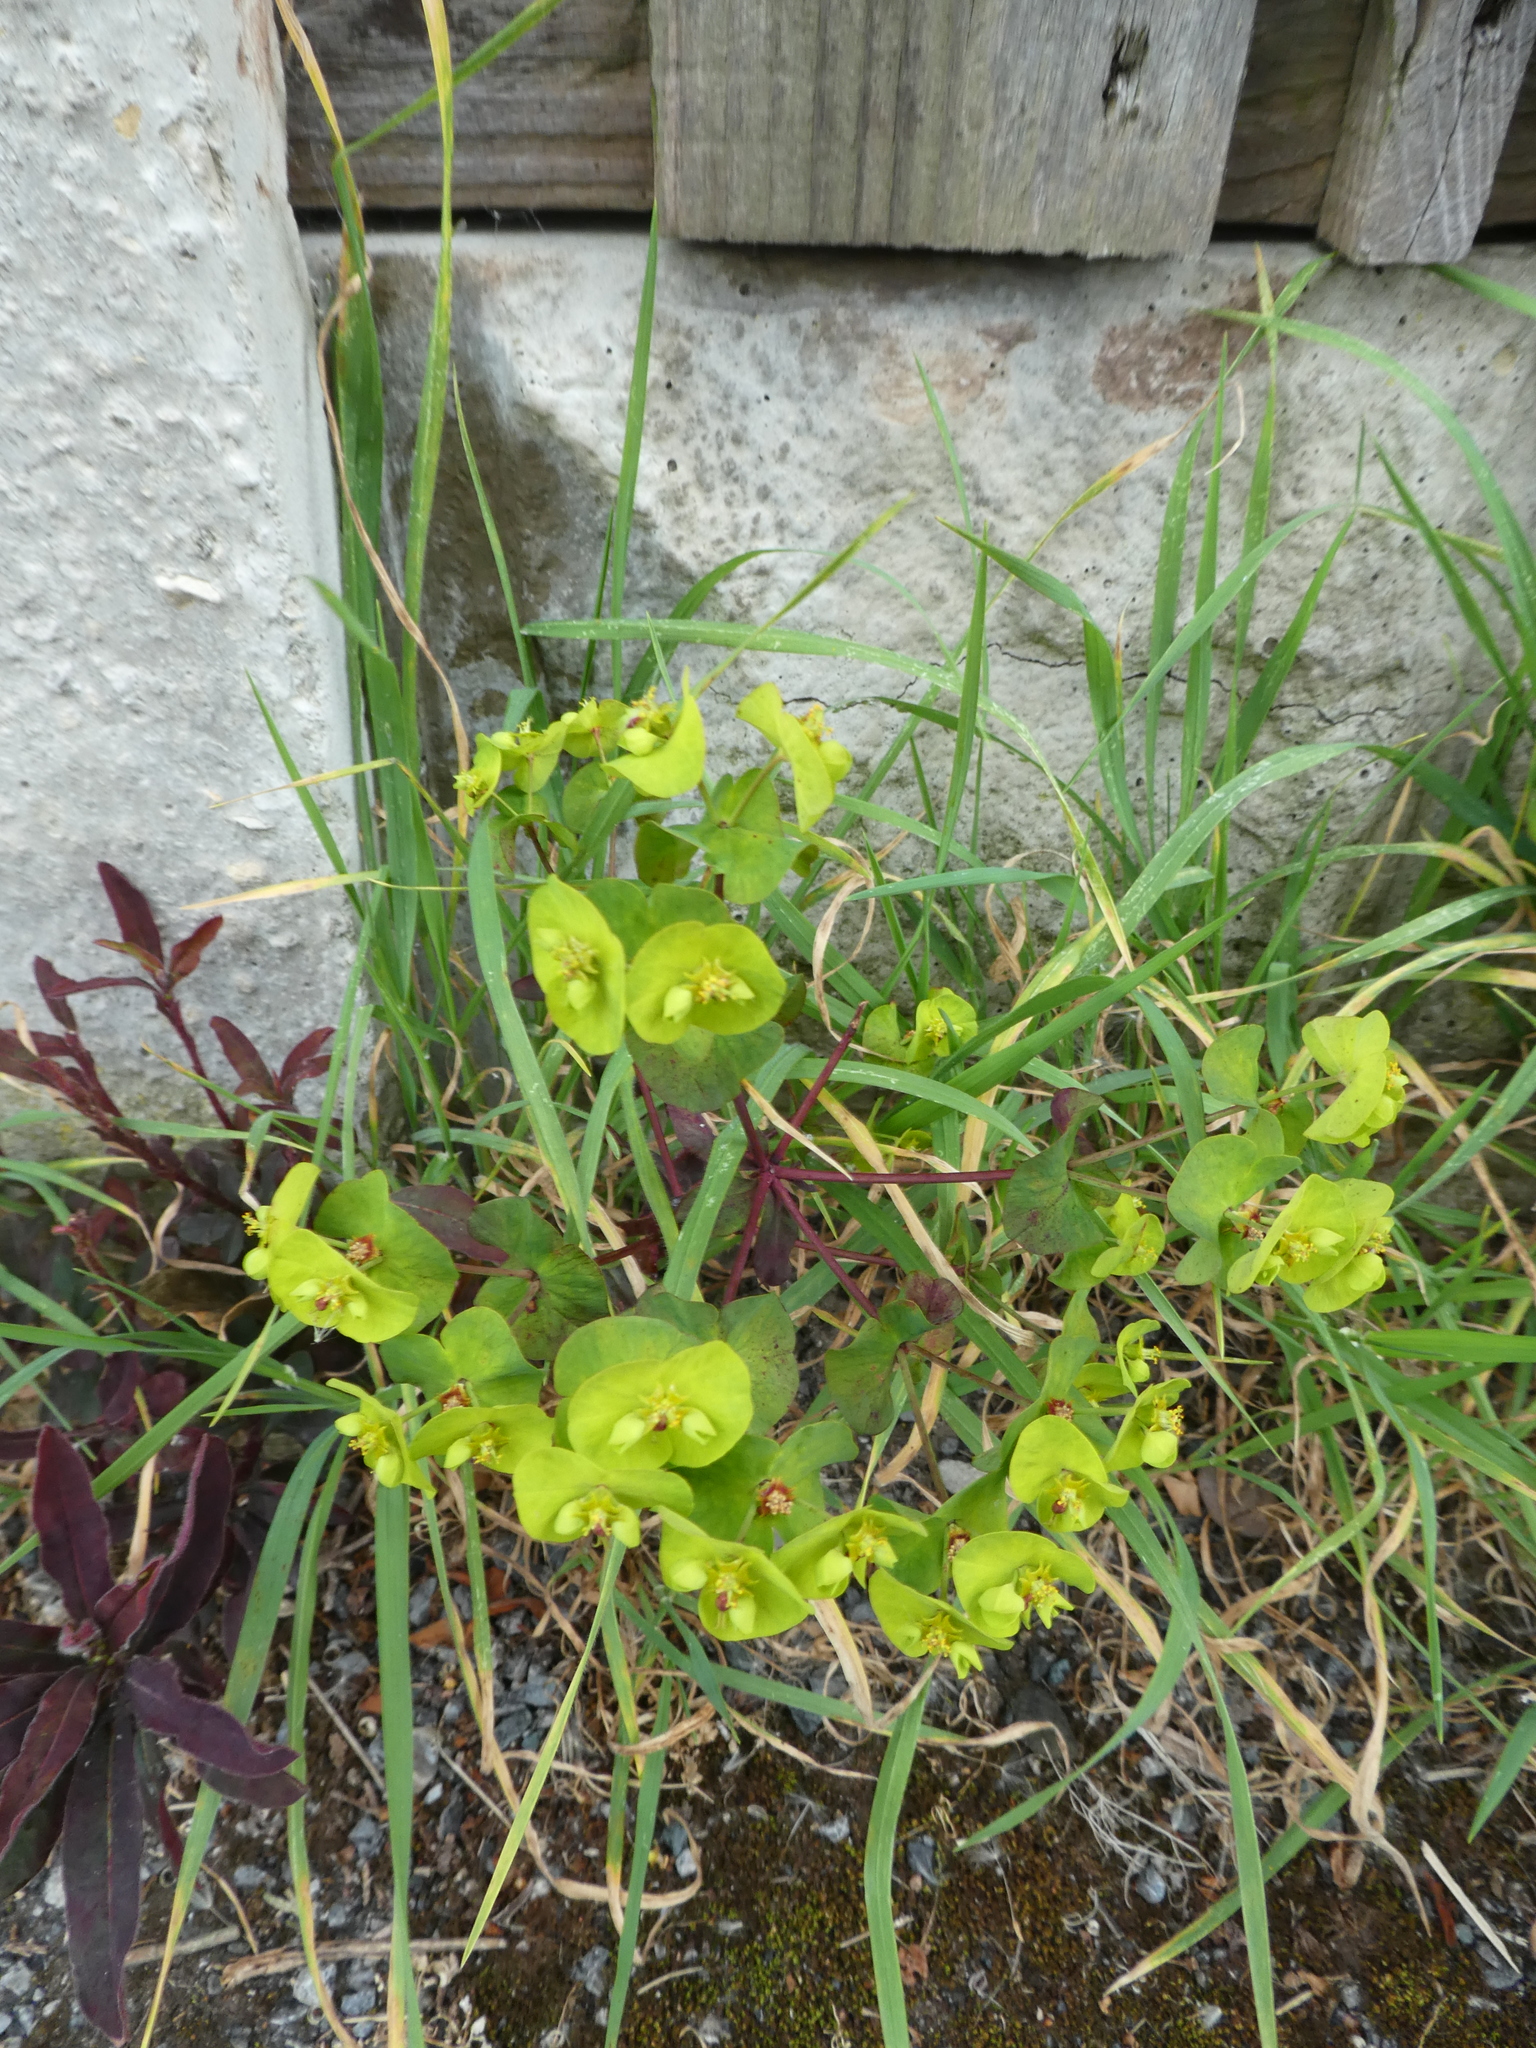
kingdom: Plantae
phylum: Tracheophyta
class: Magnoliopsida
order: Malpighiales
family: Euphorbiaceae
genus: Euphorbia
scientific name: Euphorbia amygdaloides
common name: Wood spurge
